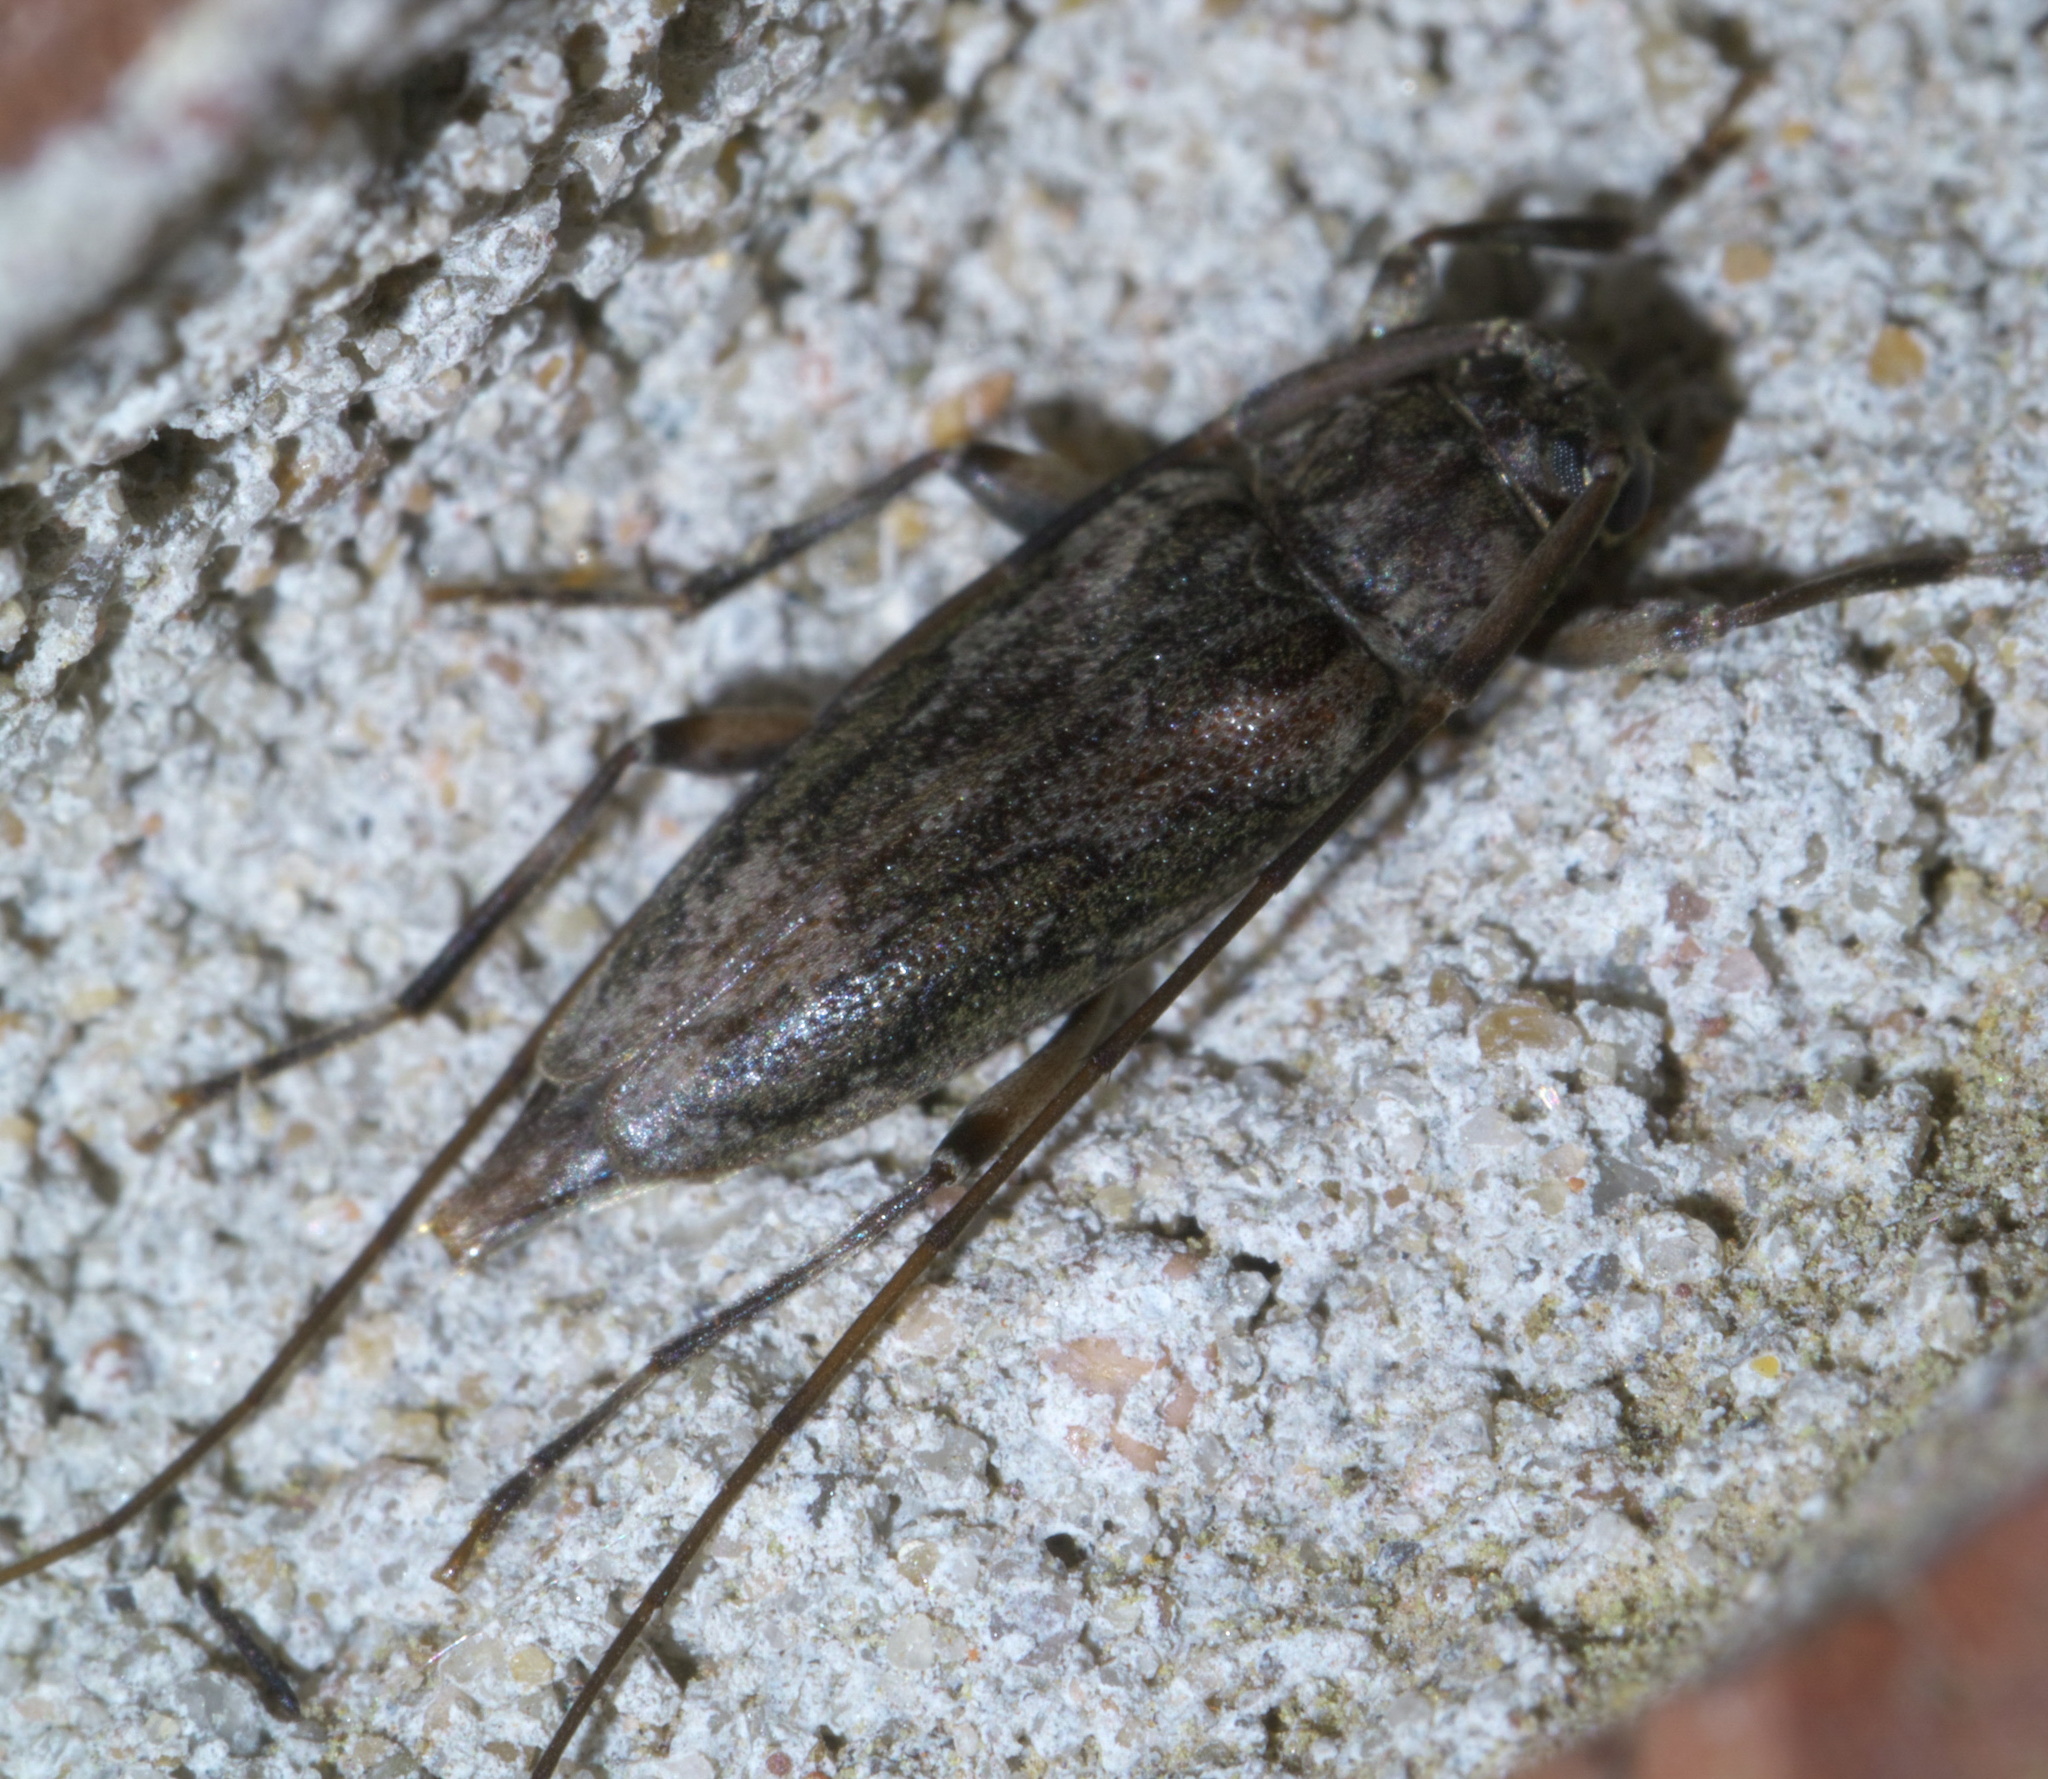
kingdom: Animalia
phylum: Arthropoda
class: Insecta
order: Coleoptera
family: Cerambycidae
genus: Lepturges
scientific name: Lepturges confluens
